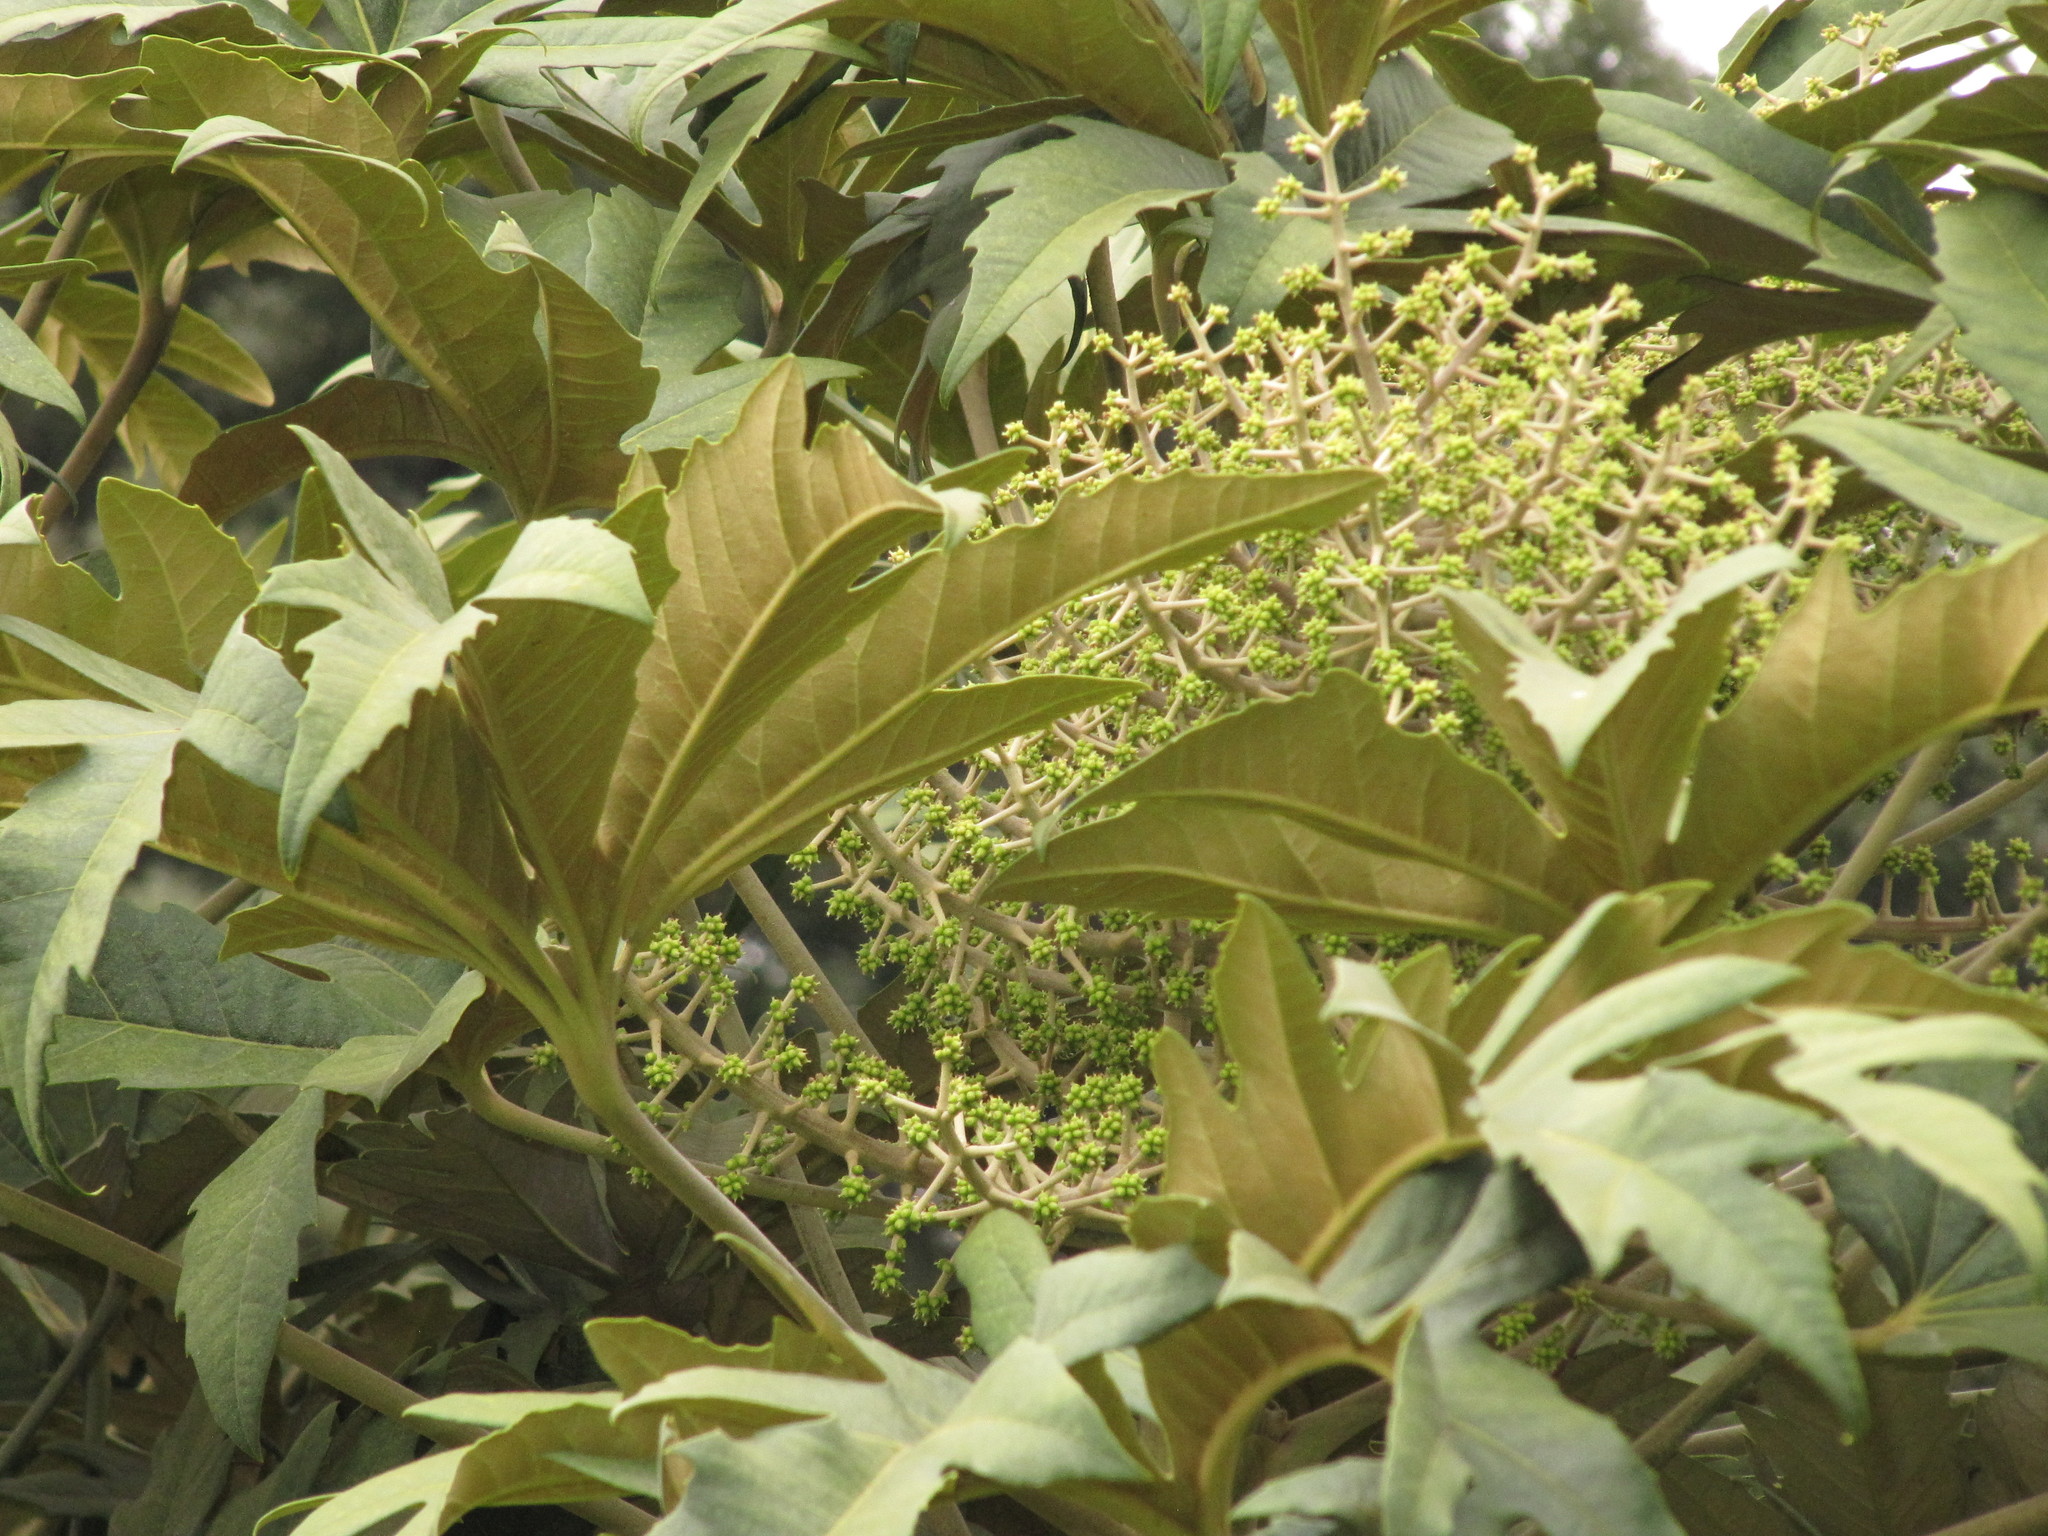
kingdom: Plantae
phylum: Tracheophyta
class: Magnoliopsida
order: Apiales
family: Araliaceae
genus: Oreopanax
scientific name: Oreopanax incisus
